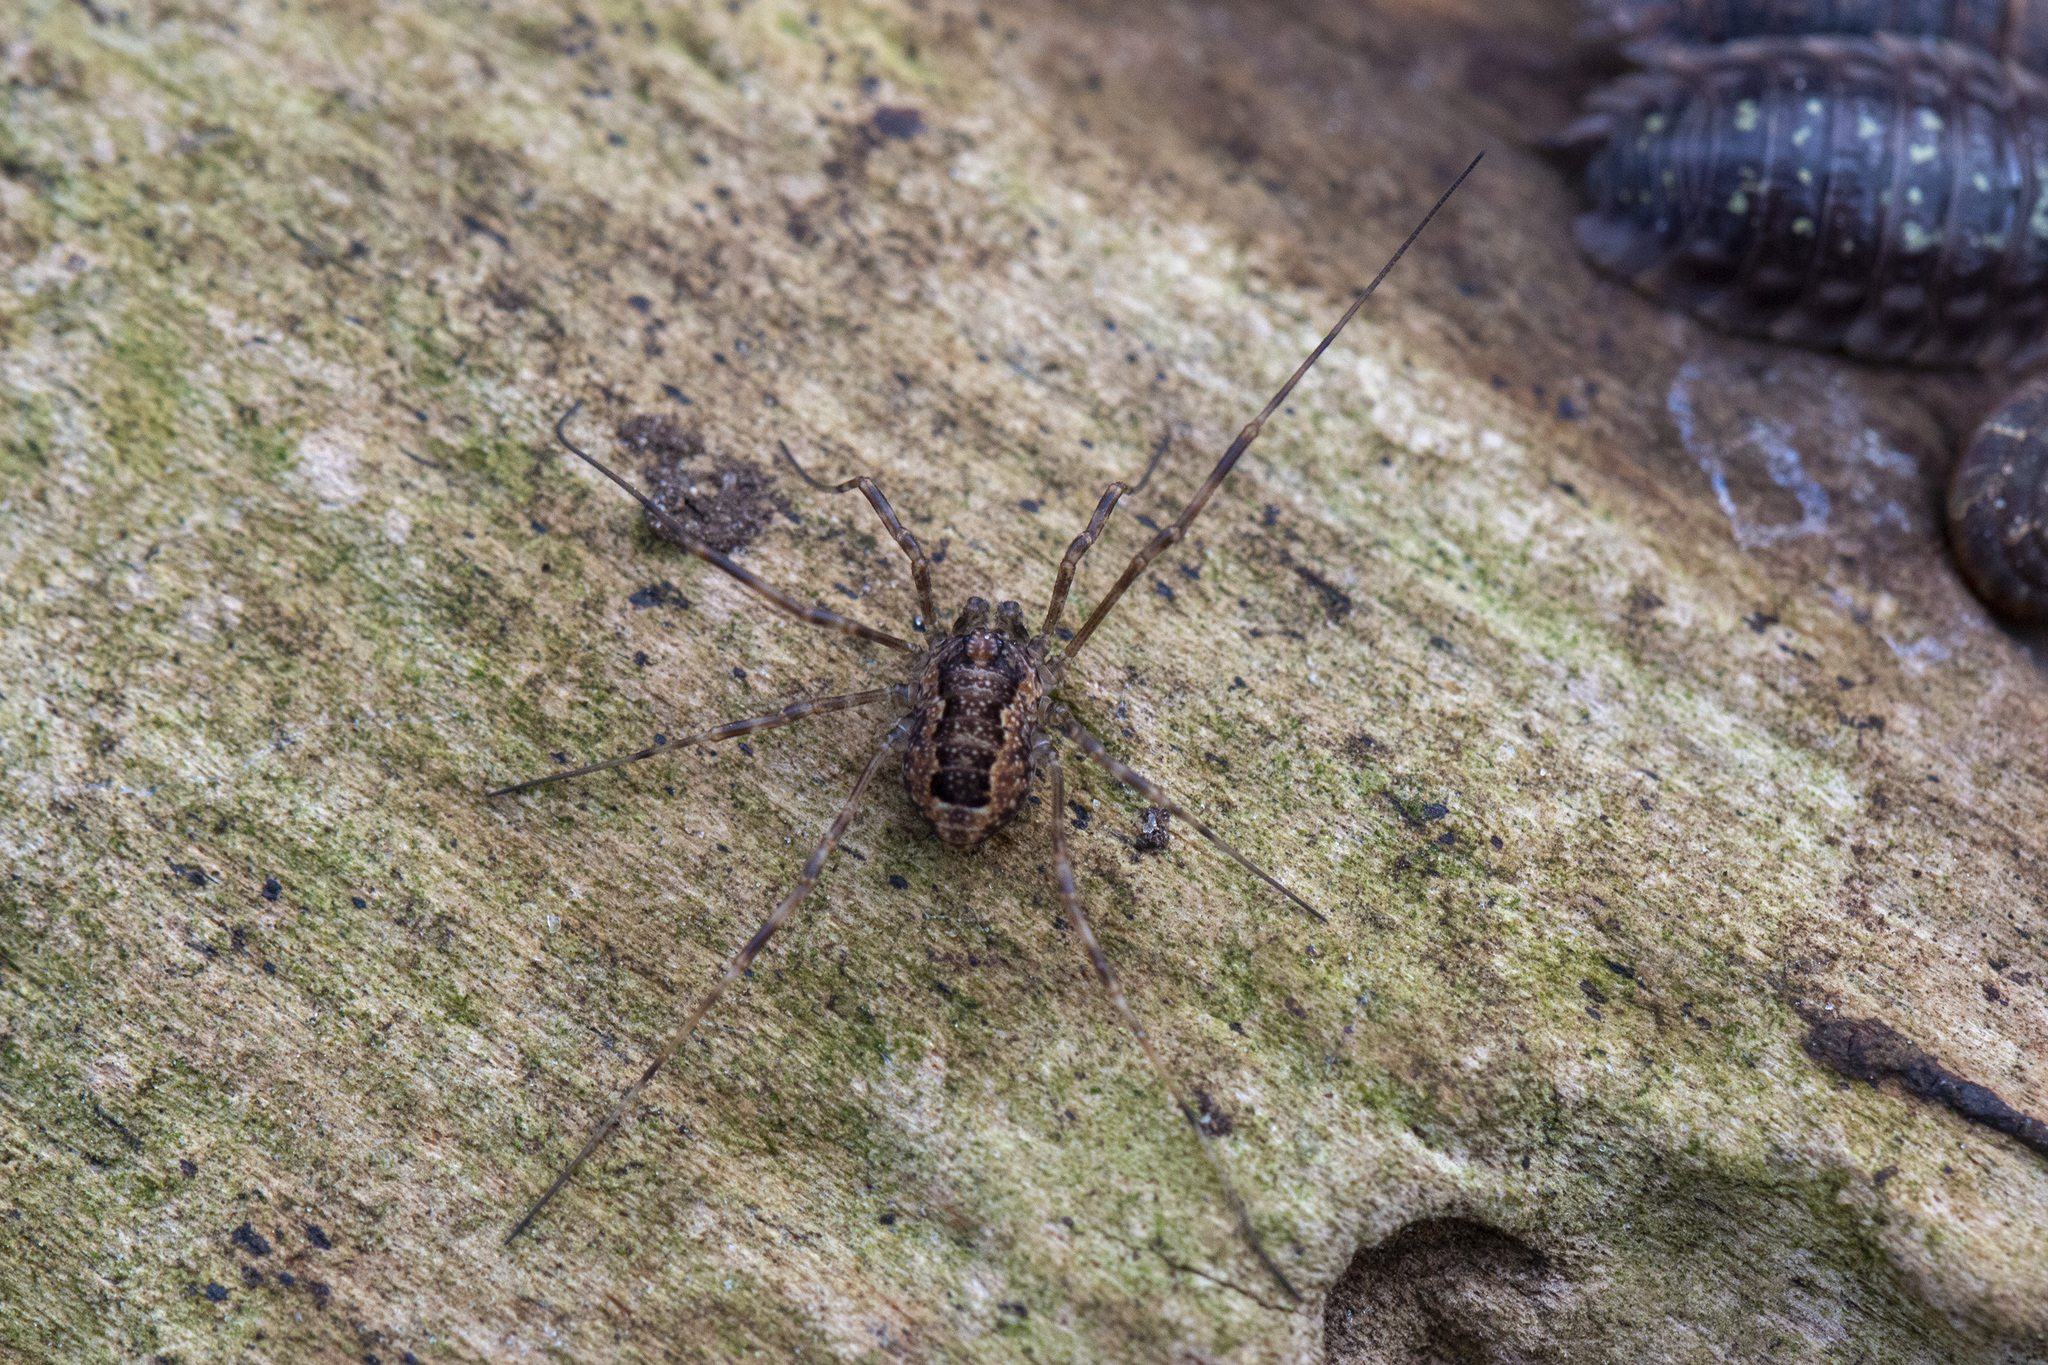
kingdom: Animalia
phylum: Arthropoda
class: Arachnida
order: Opiliones
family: Phalangiidae
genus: Rilaena
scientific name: Rilaena triangularis
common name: Spring harvestman
